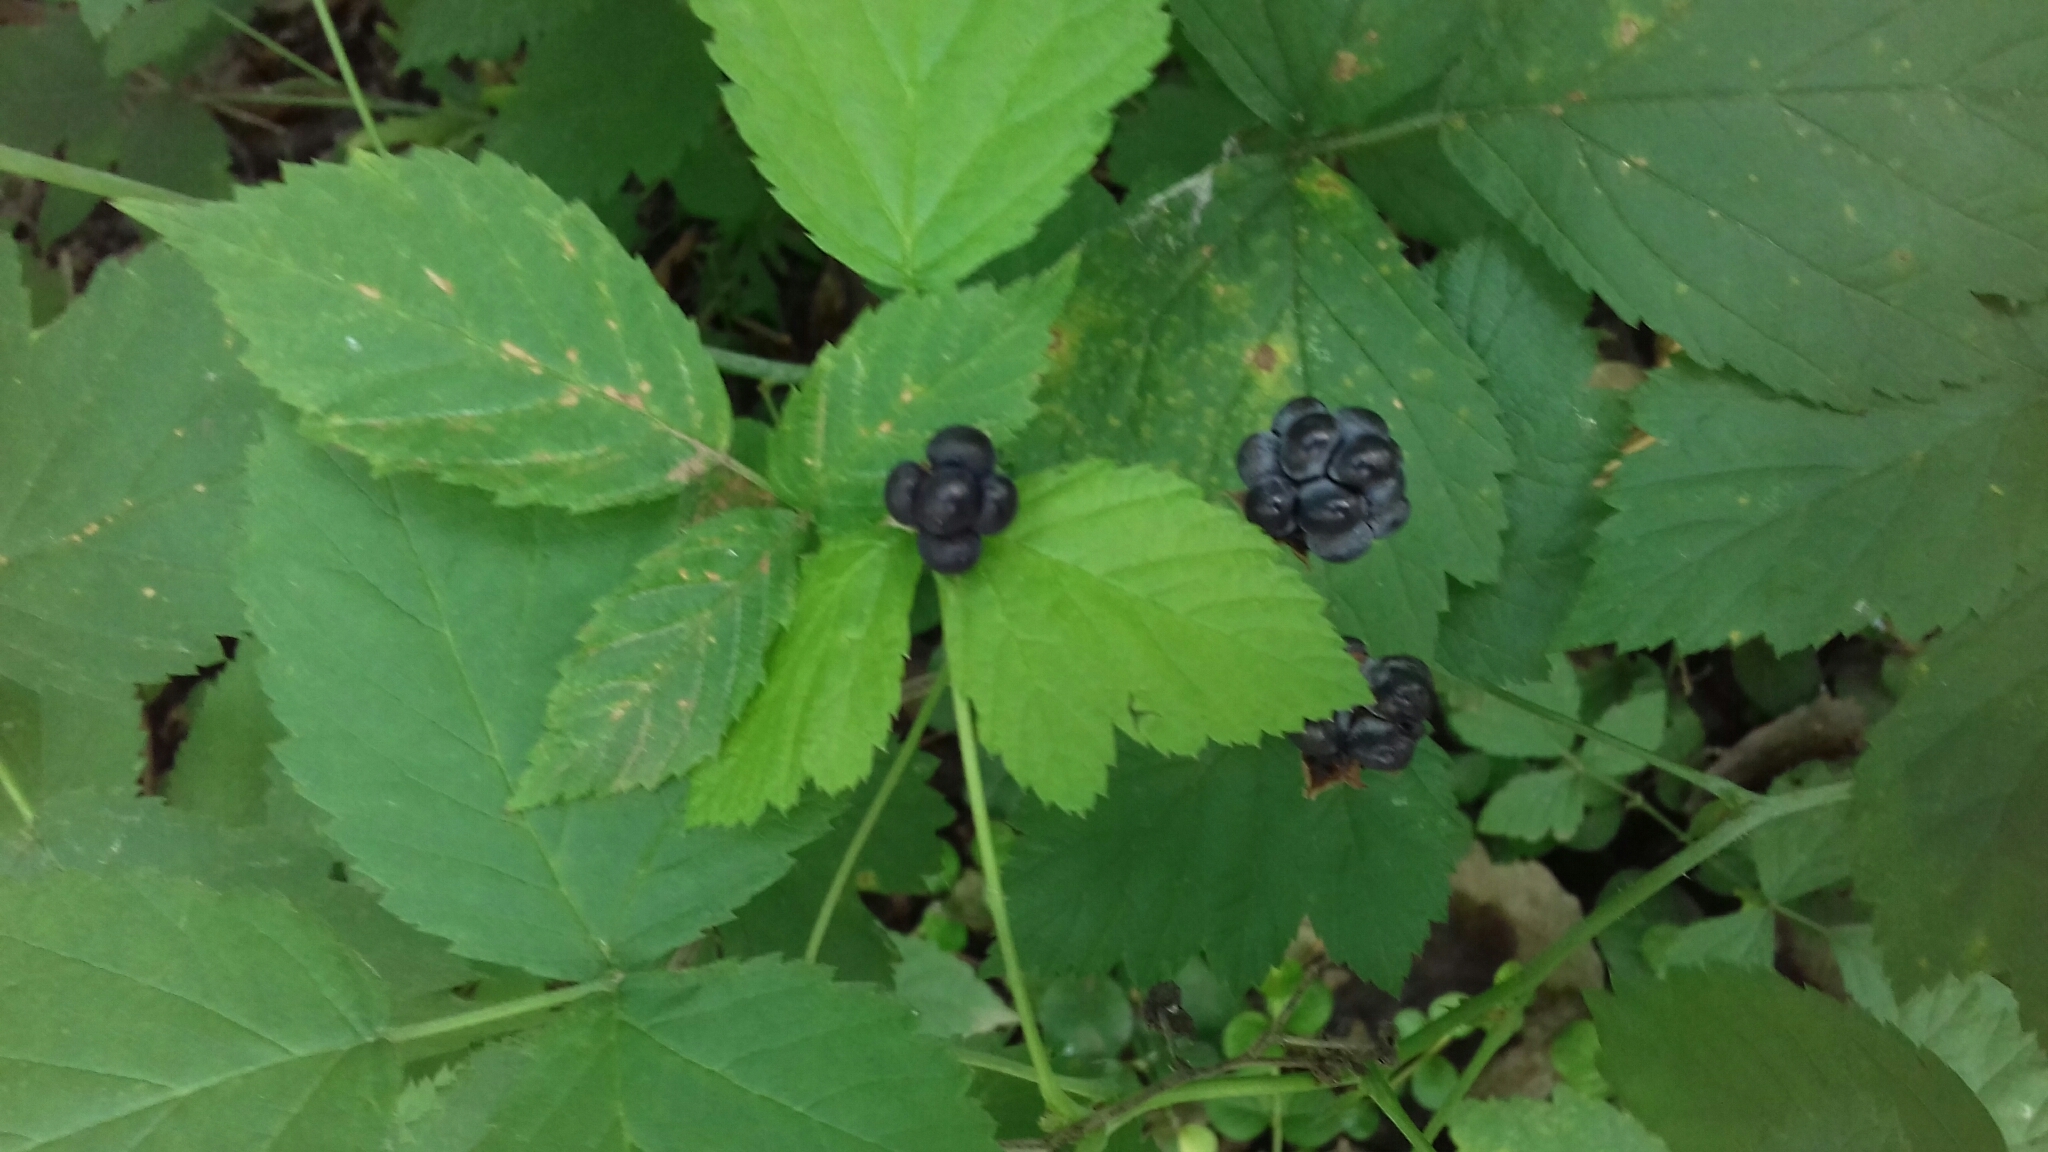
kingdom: Plantae
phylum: Tracheophyta
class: Magnoliopsida
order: Rosales
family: Rosaceae
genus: Rubus
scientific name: Rubus caesius
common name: Dewberry
